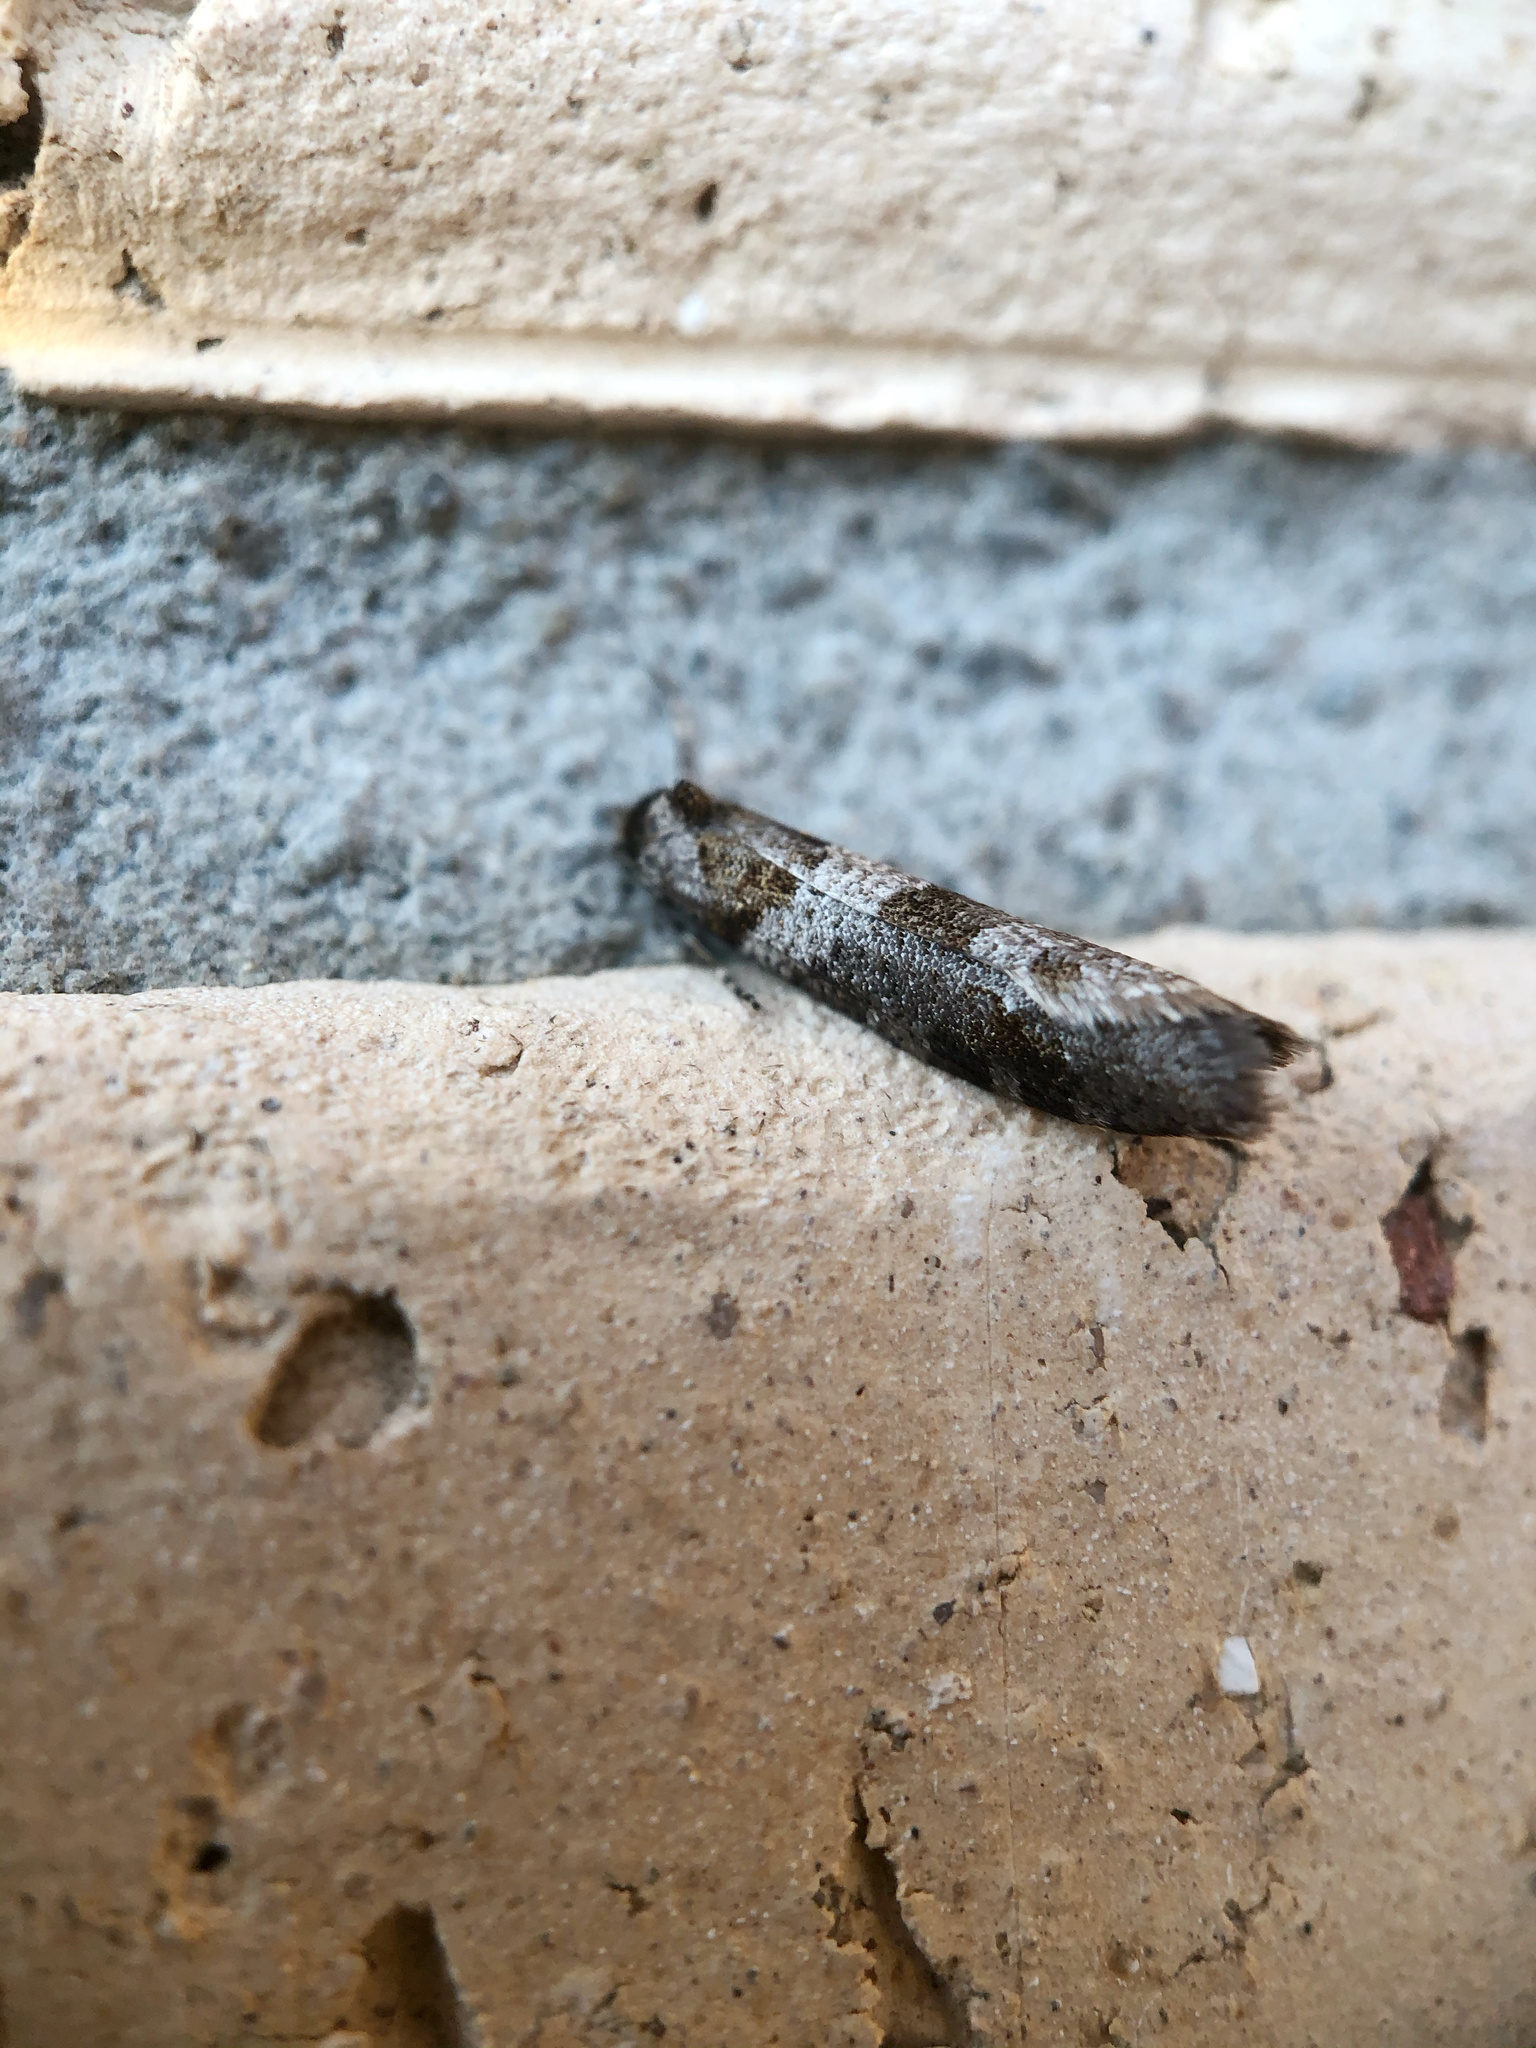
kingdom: Animalia
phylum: Arthropoda
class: Insecta
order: Lepidoptera
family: Psychidae
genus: Lepidoscia
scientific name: Lepidoscia heliochares
